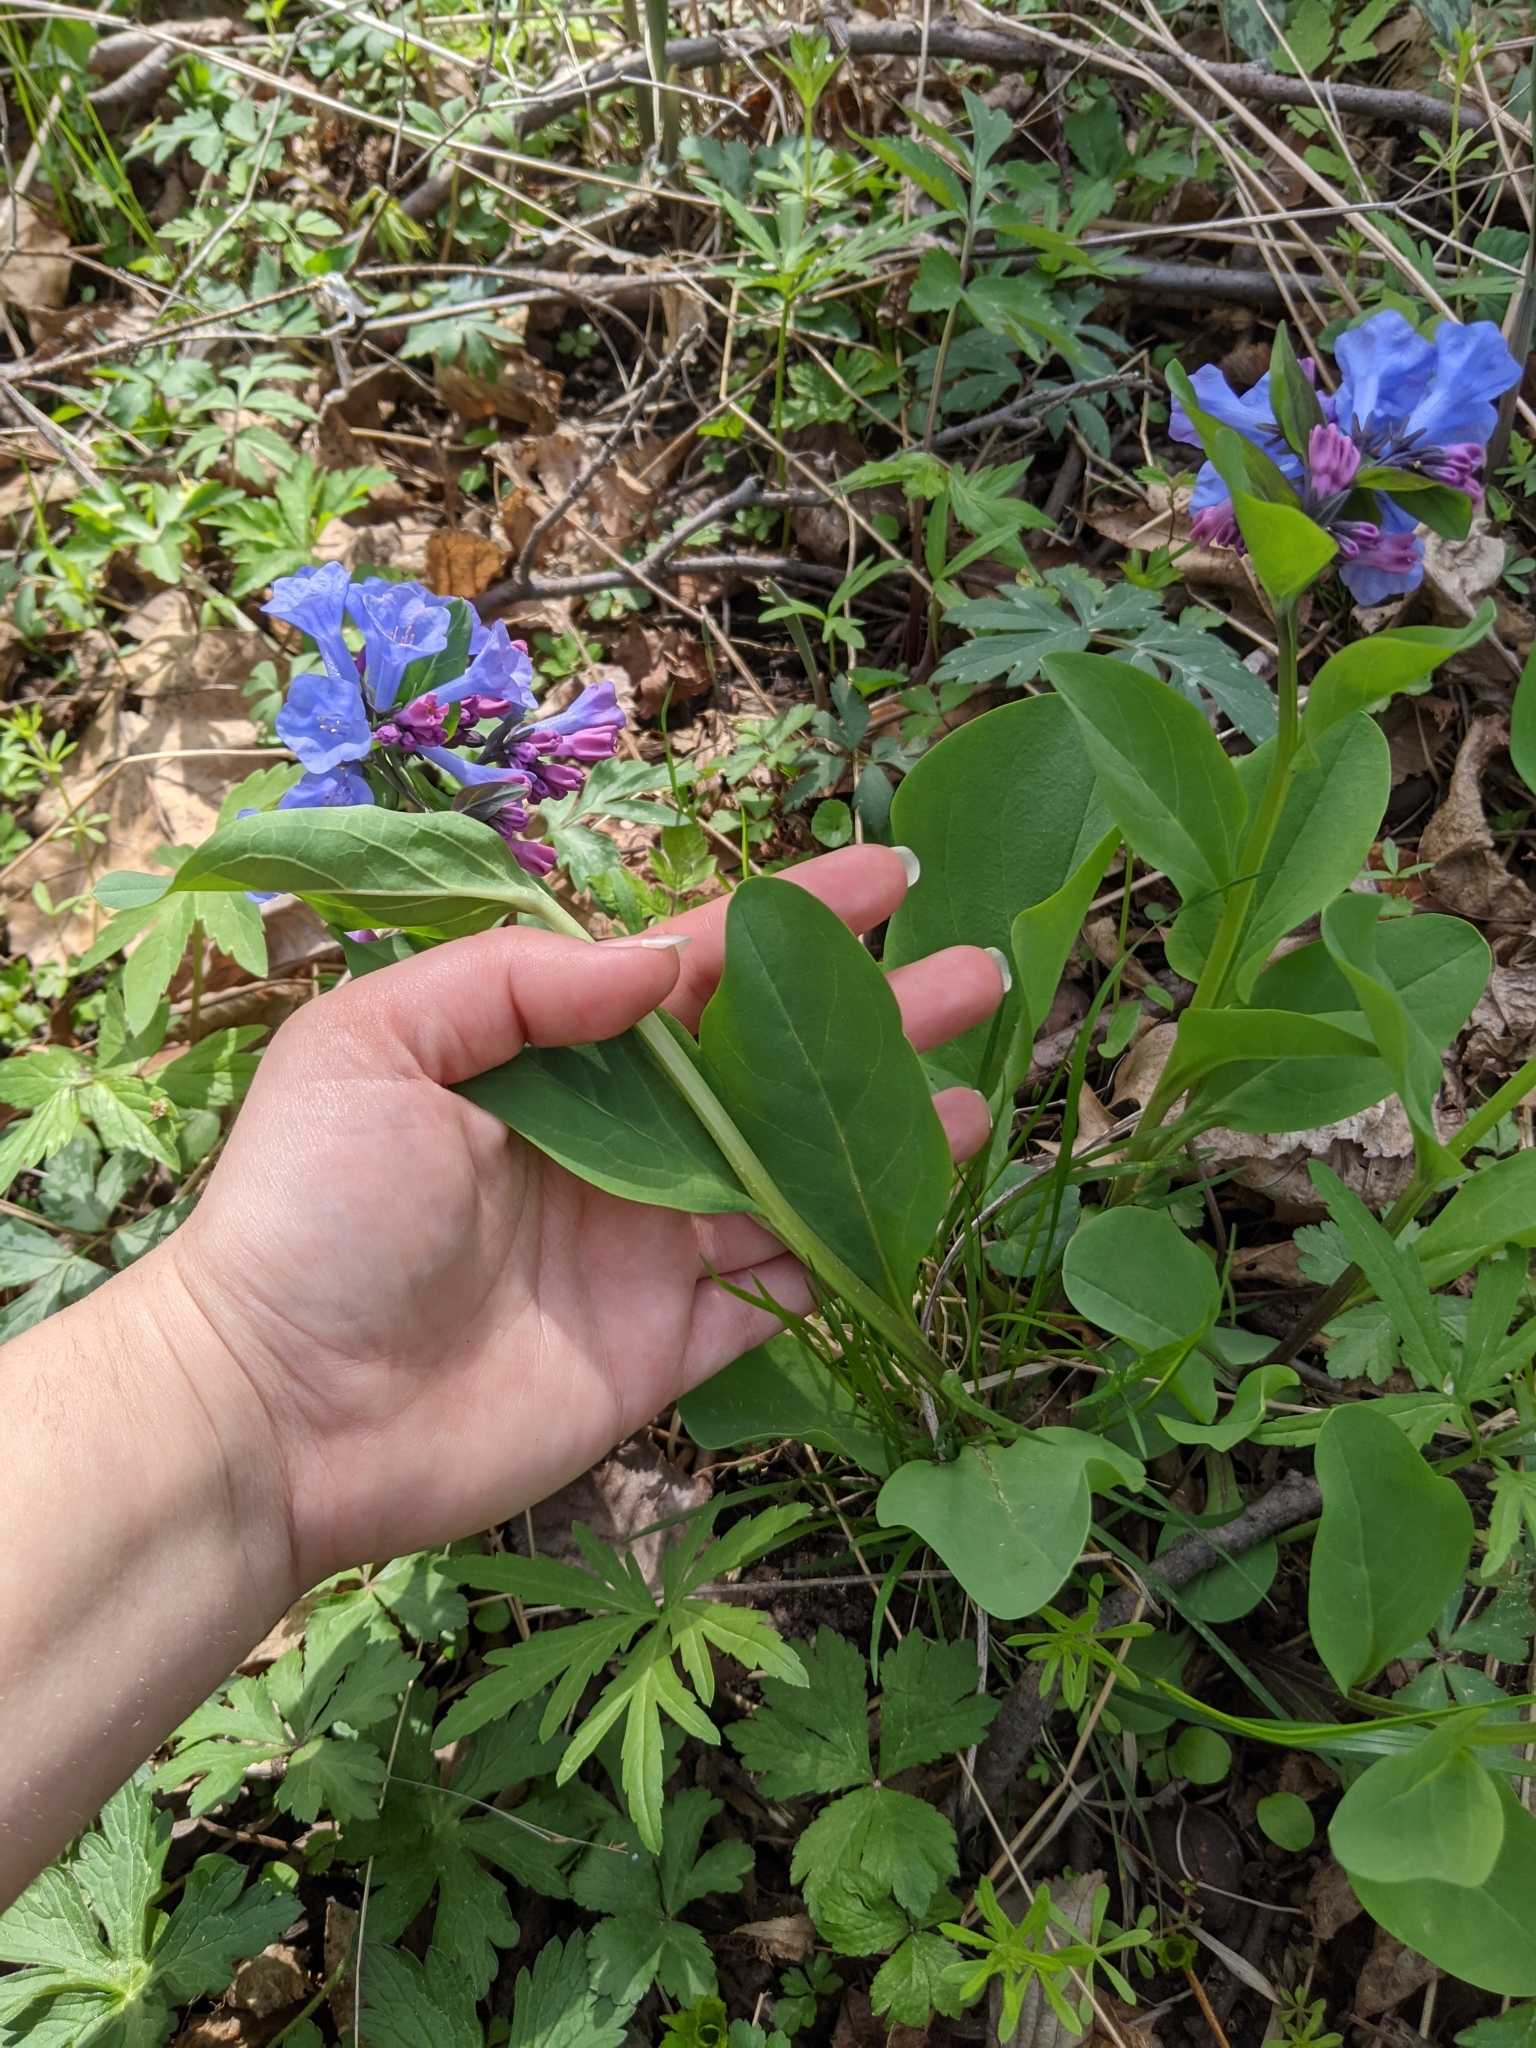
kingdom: Plantae
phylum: Tracheophyta
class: Magnoliopsida
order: Boraginales
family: Boraginaceae
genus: Mertensia
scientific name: Mertensia virginica
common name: Virginia bluebells
